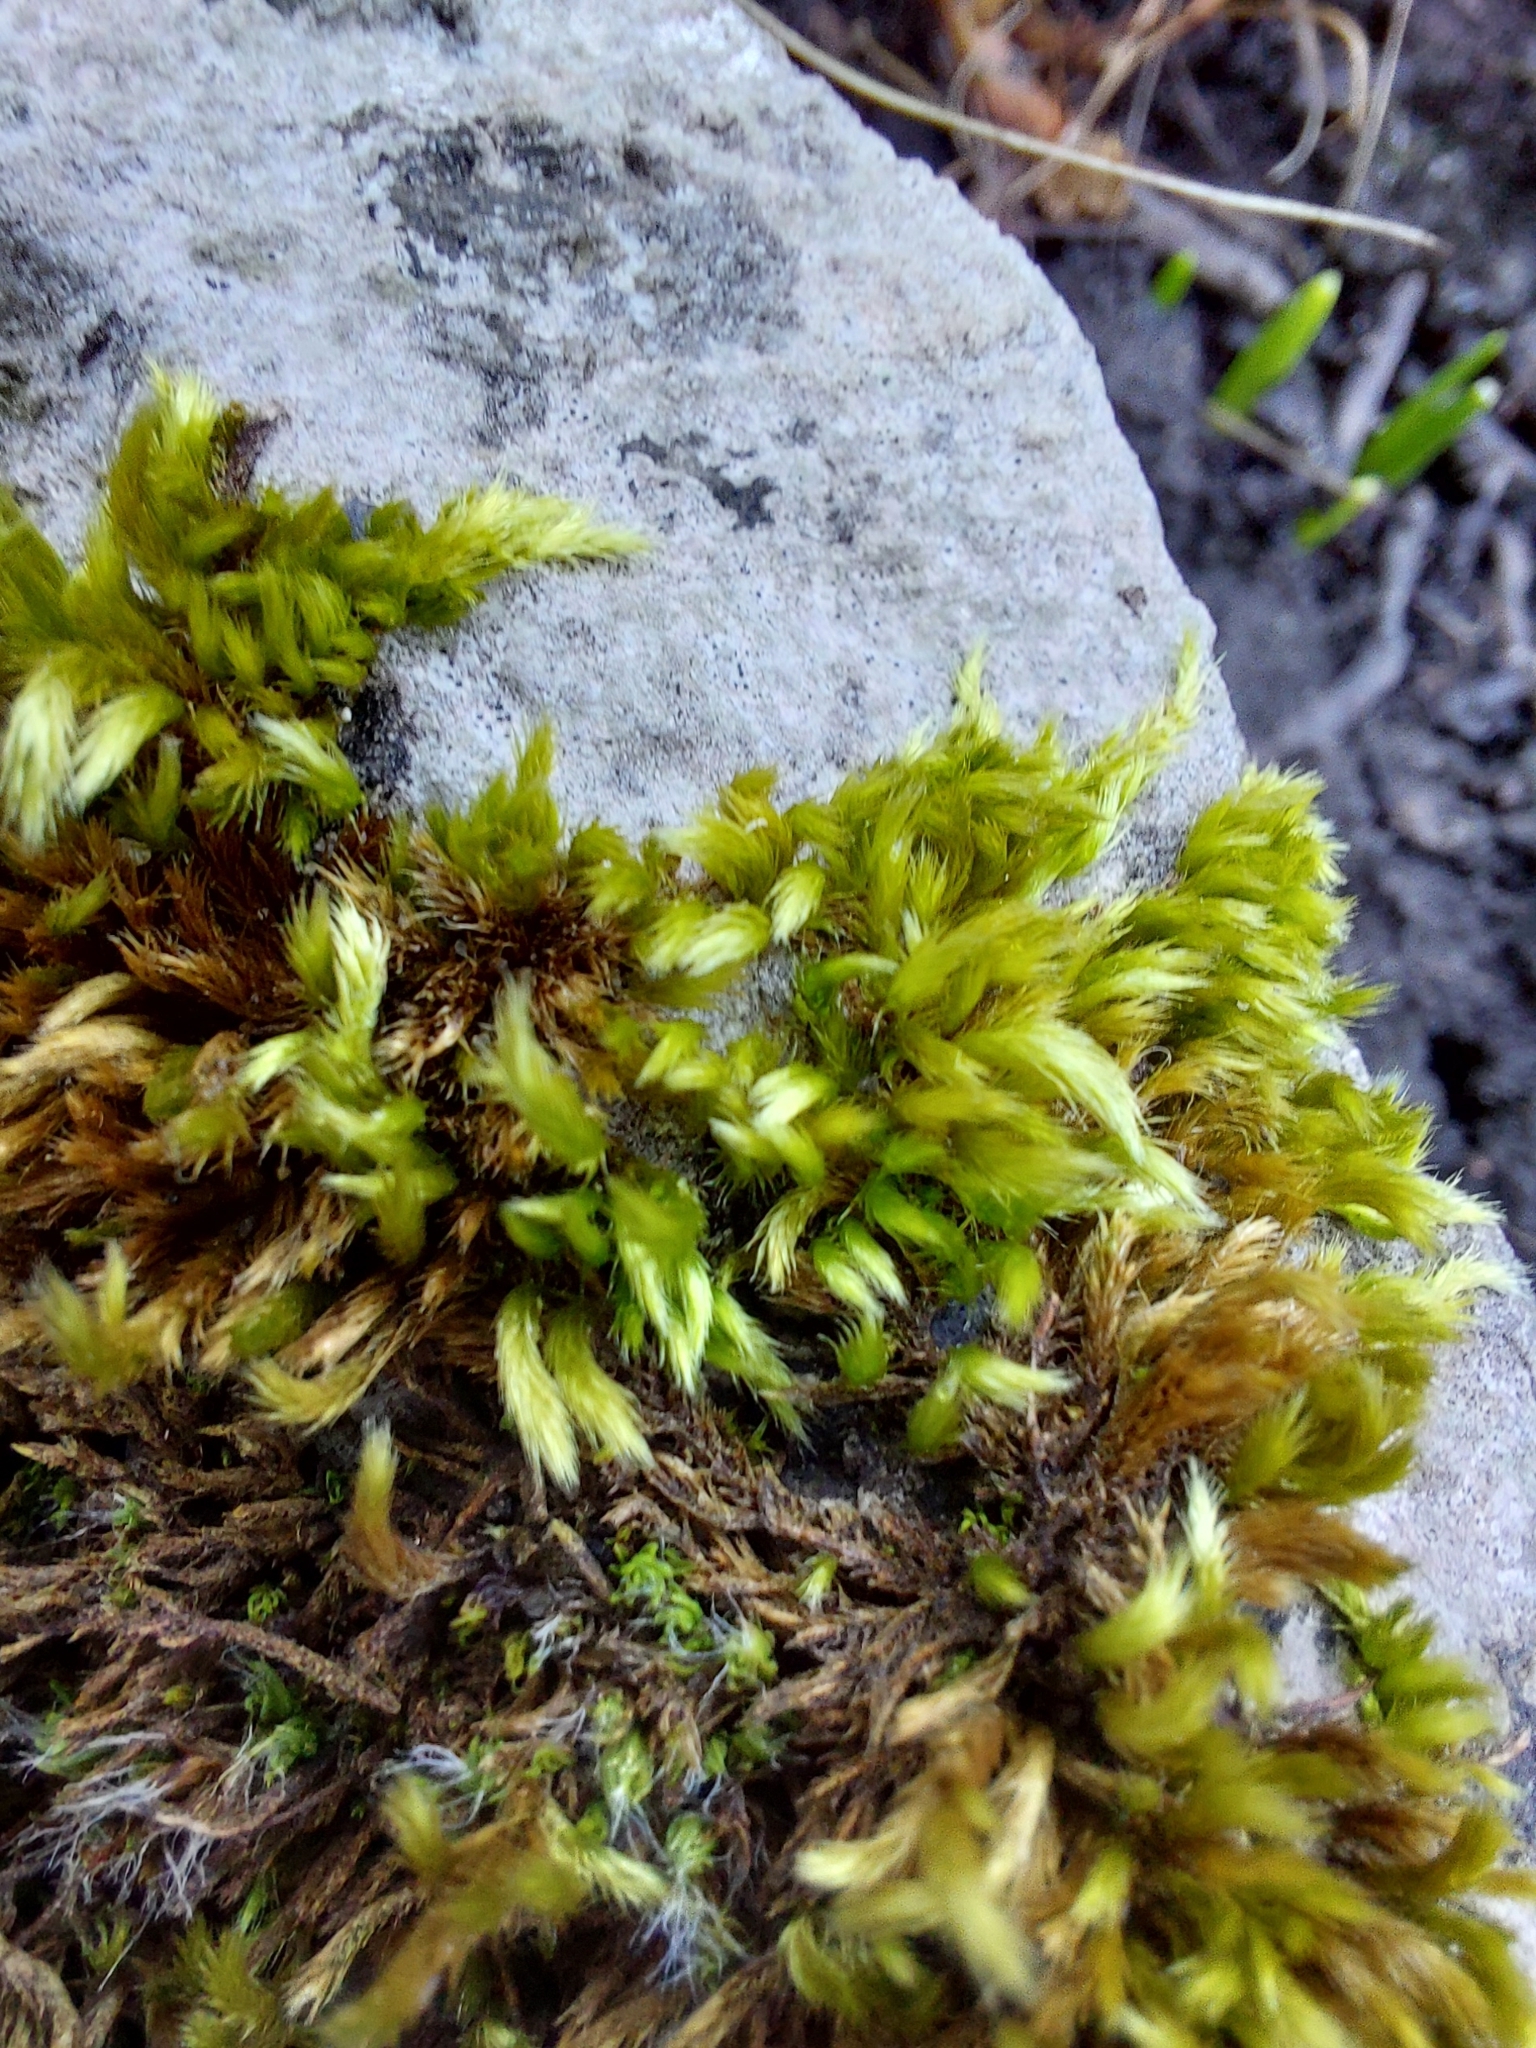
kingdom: Plantae
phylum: Bryophyta
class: Bryopsida
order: Hypnales
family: Brachytheciaceae
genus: Homalothecium
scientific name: Homalothecium sericeum
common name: Silky wall feather-moss
